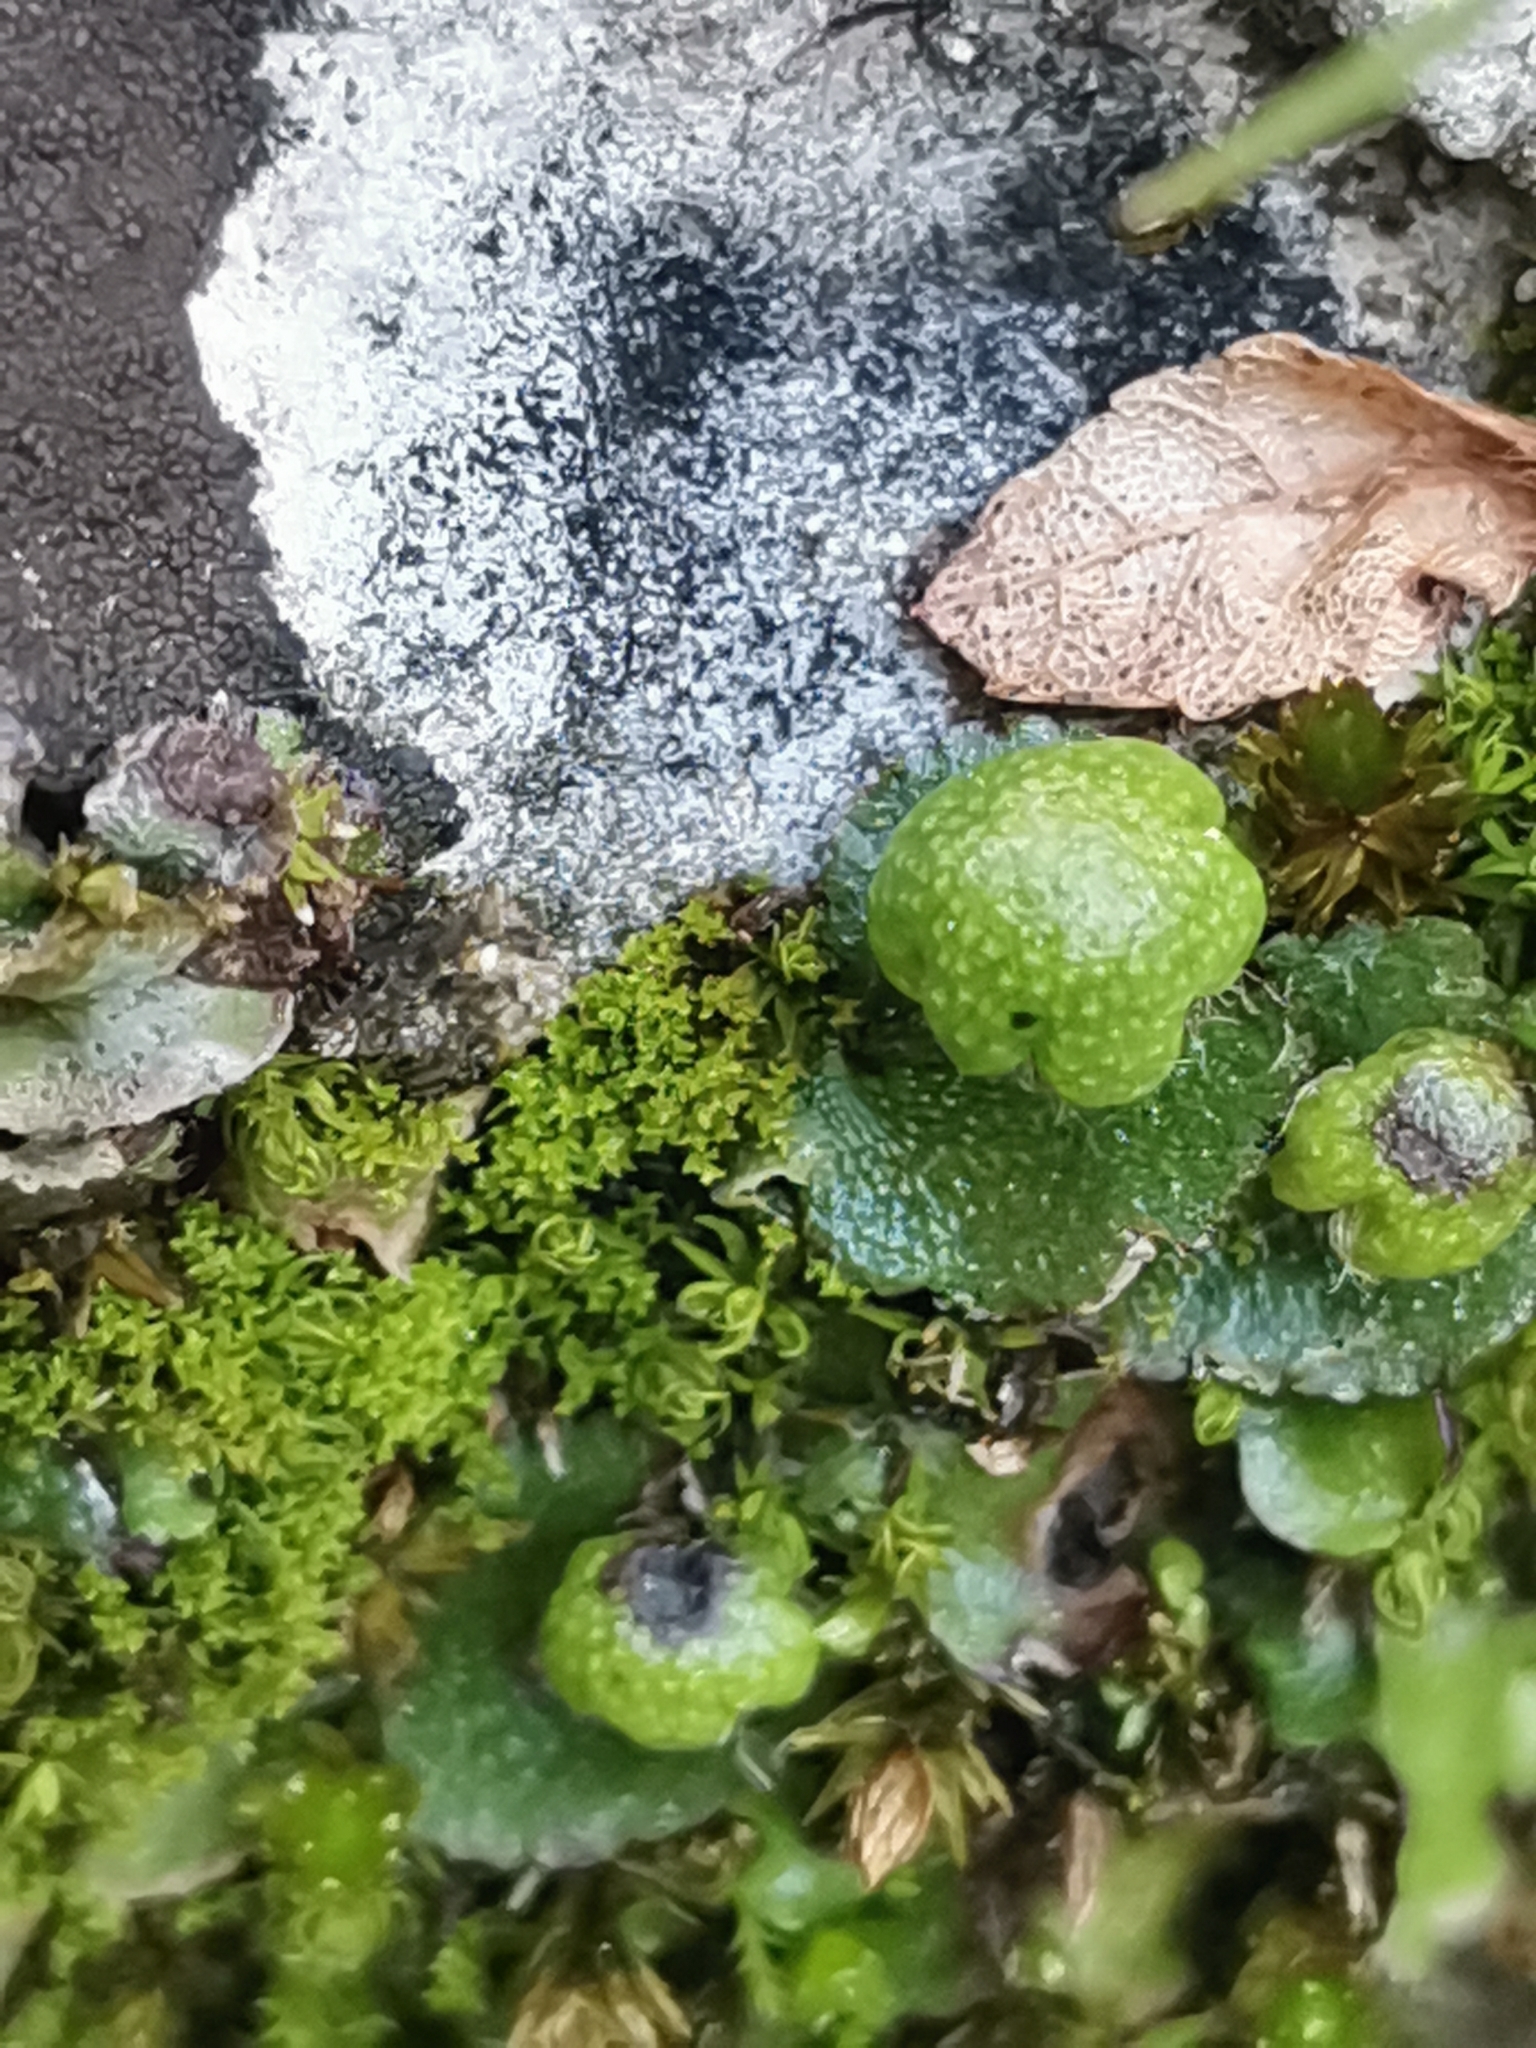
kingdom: Plantae
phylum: Marchantiophyta
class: Marchantiopsida
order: Marchantiales
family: Aytoniaceae
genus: Reboulia
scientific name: Reboulia hemisphaerica
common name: Purple-margined liverwort
